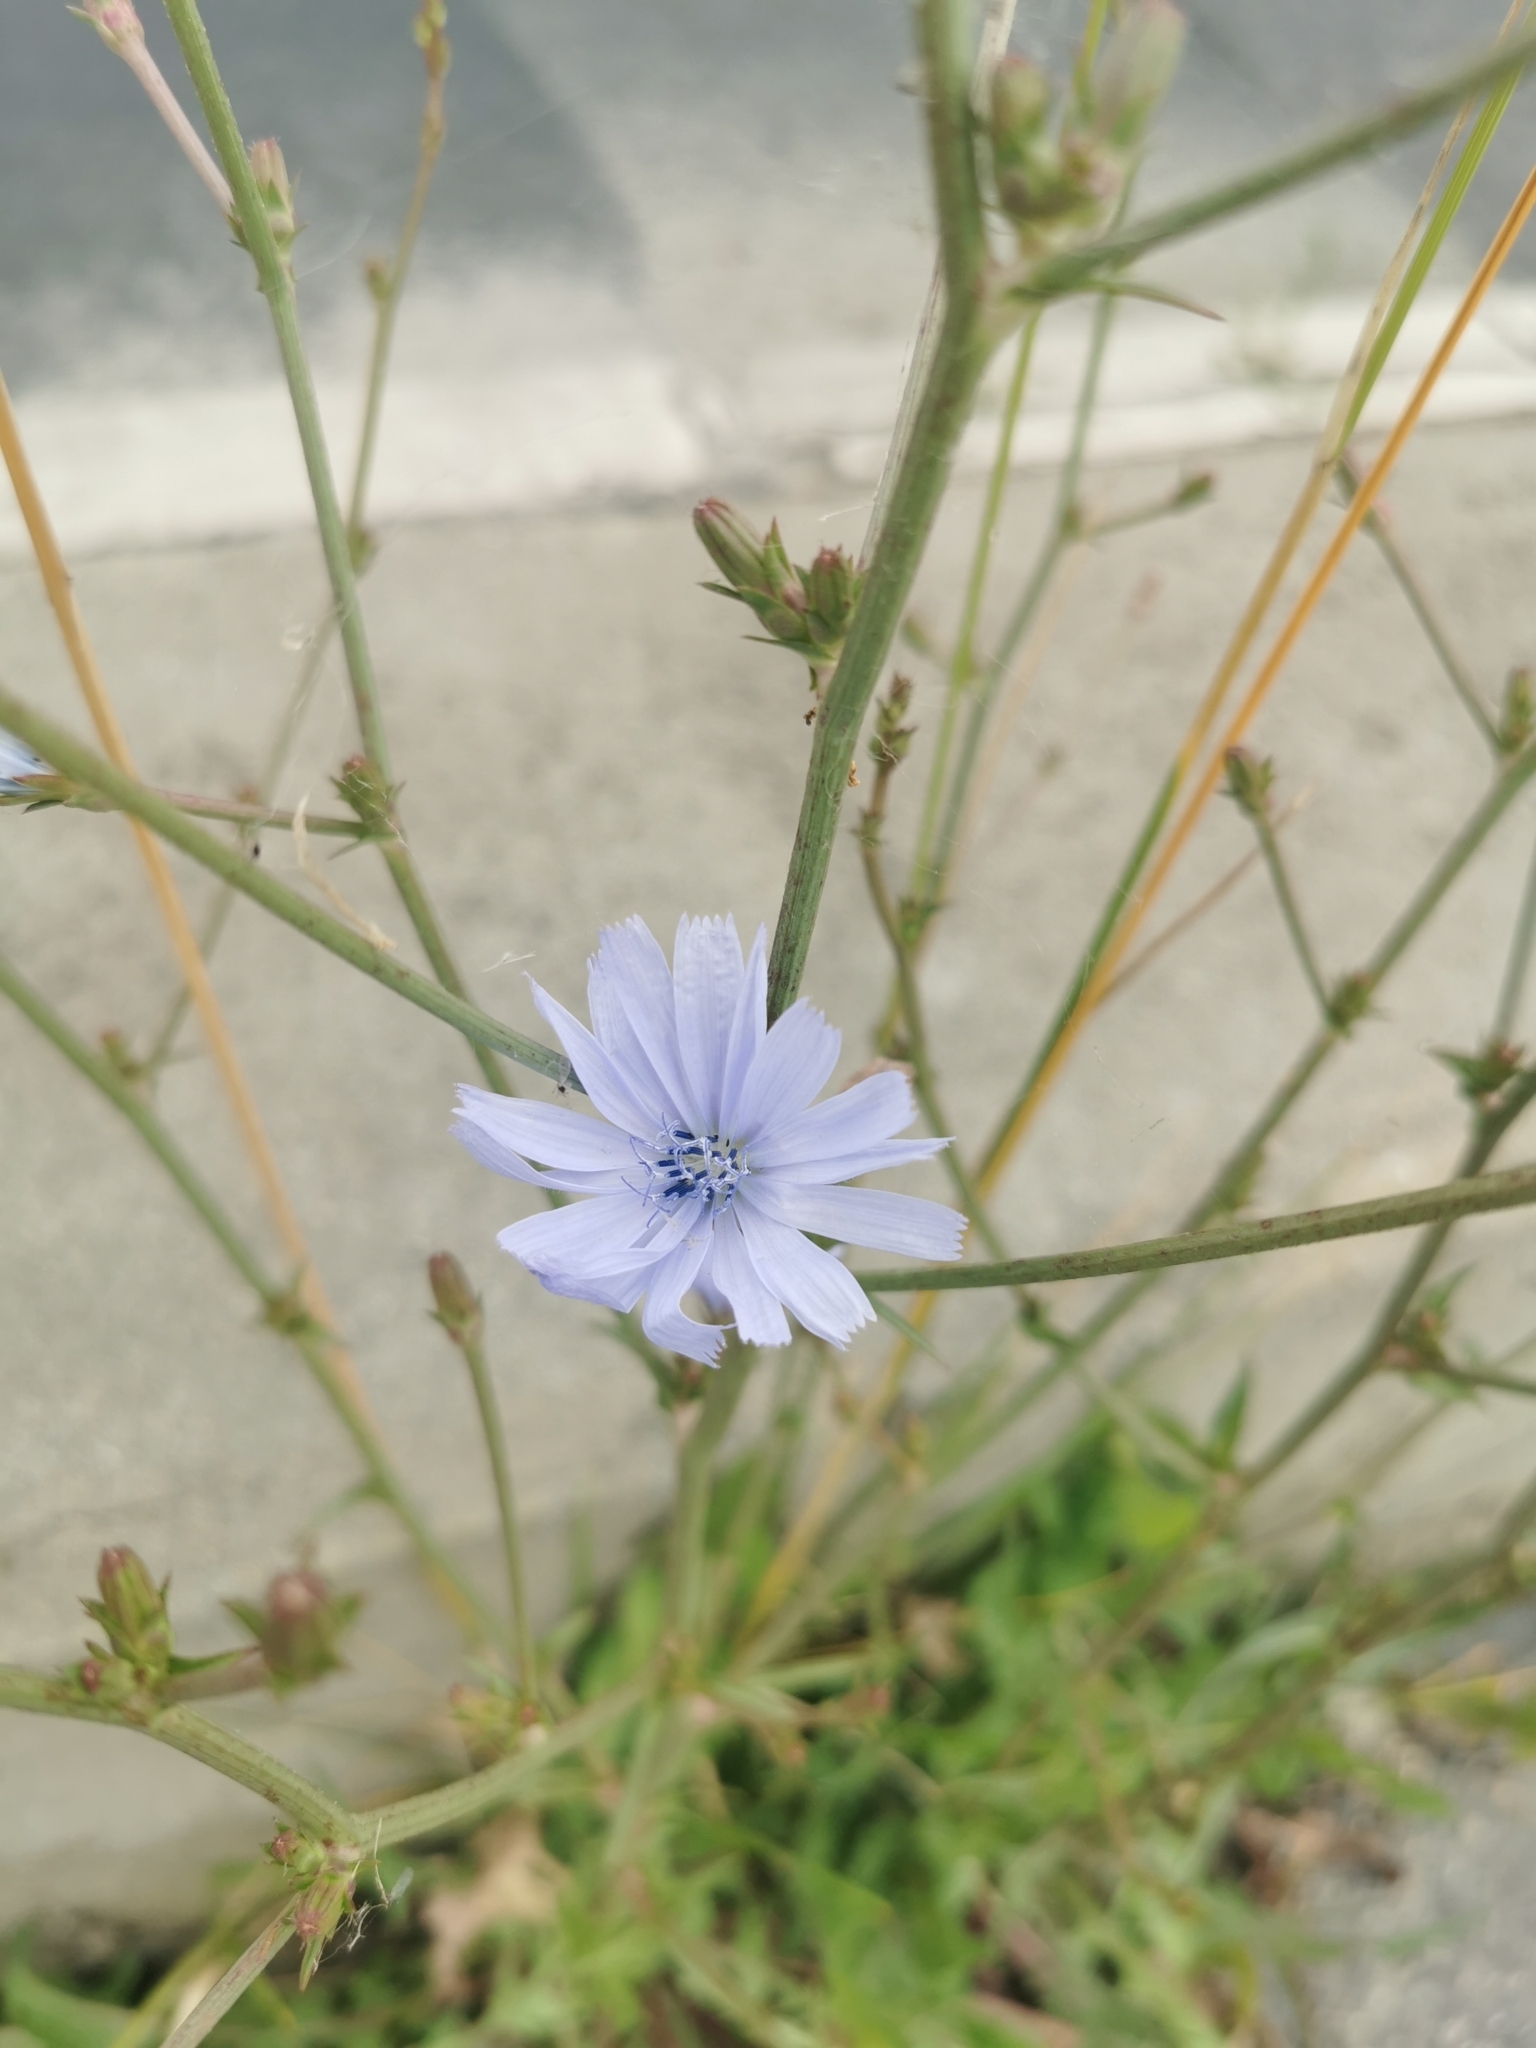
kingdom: Plantae
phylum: Tracheophyta
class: Magnoliopsida
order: Asterales
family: Asteraceae
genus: Cichorium
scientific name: Cichorium intybus
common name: Chicory
